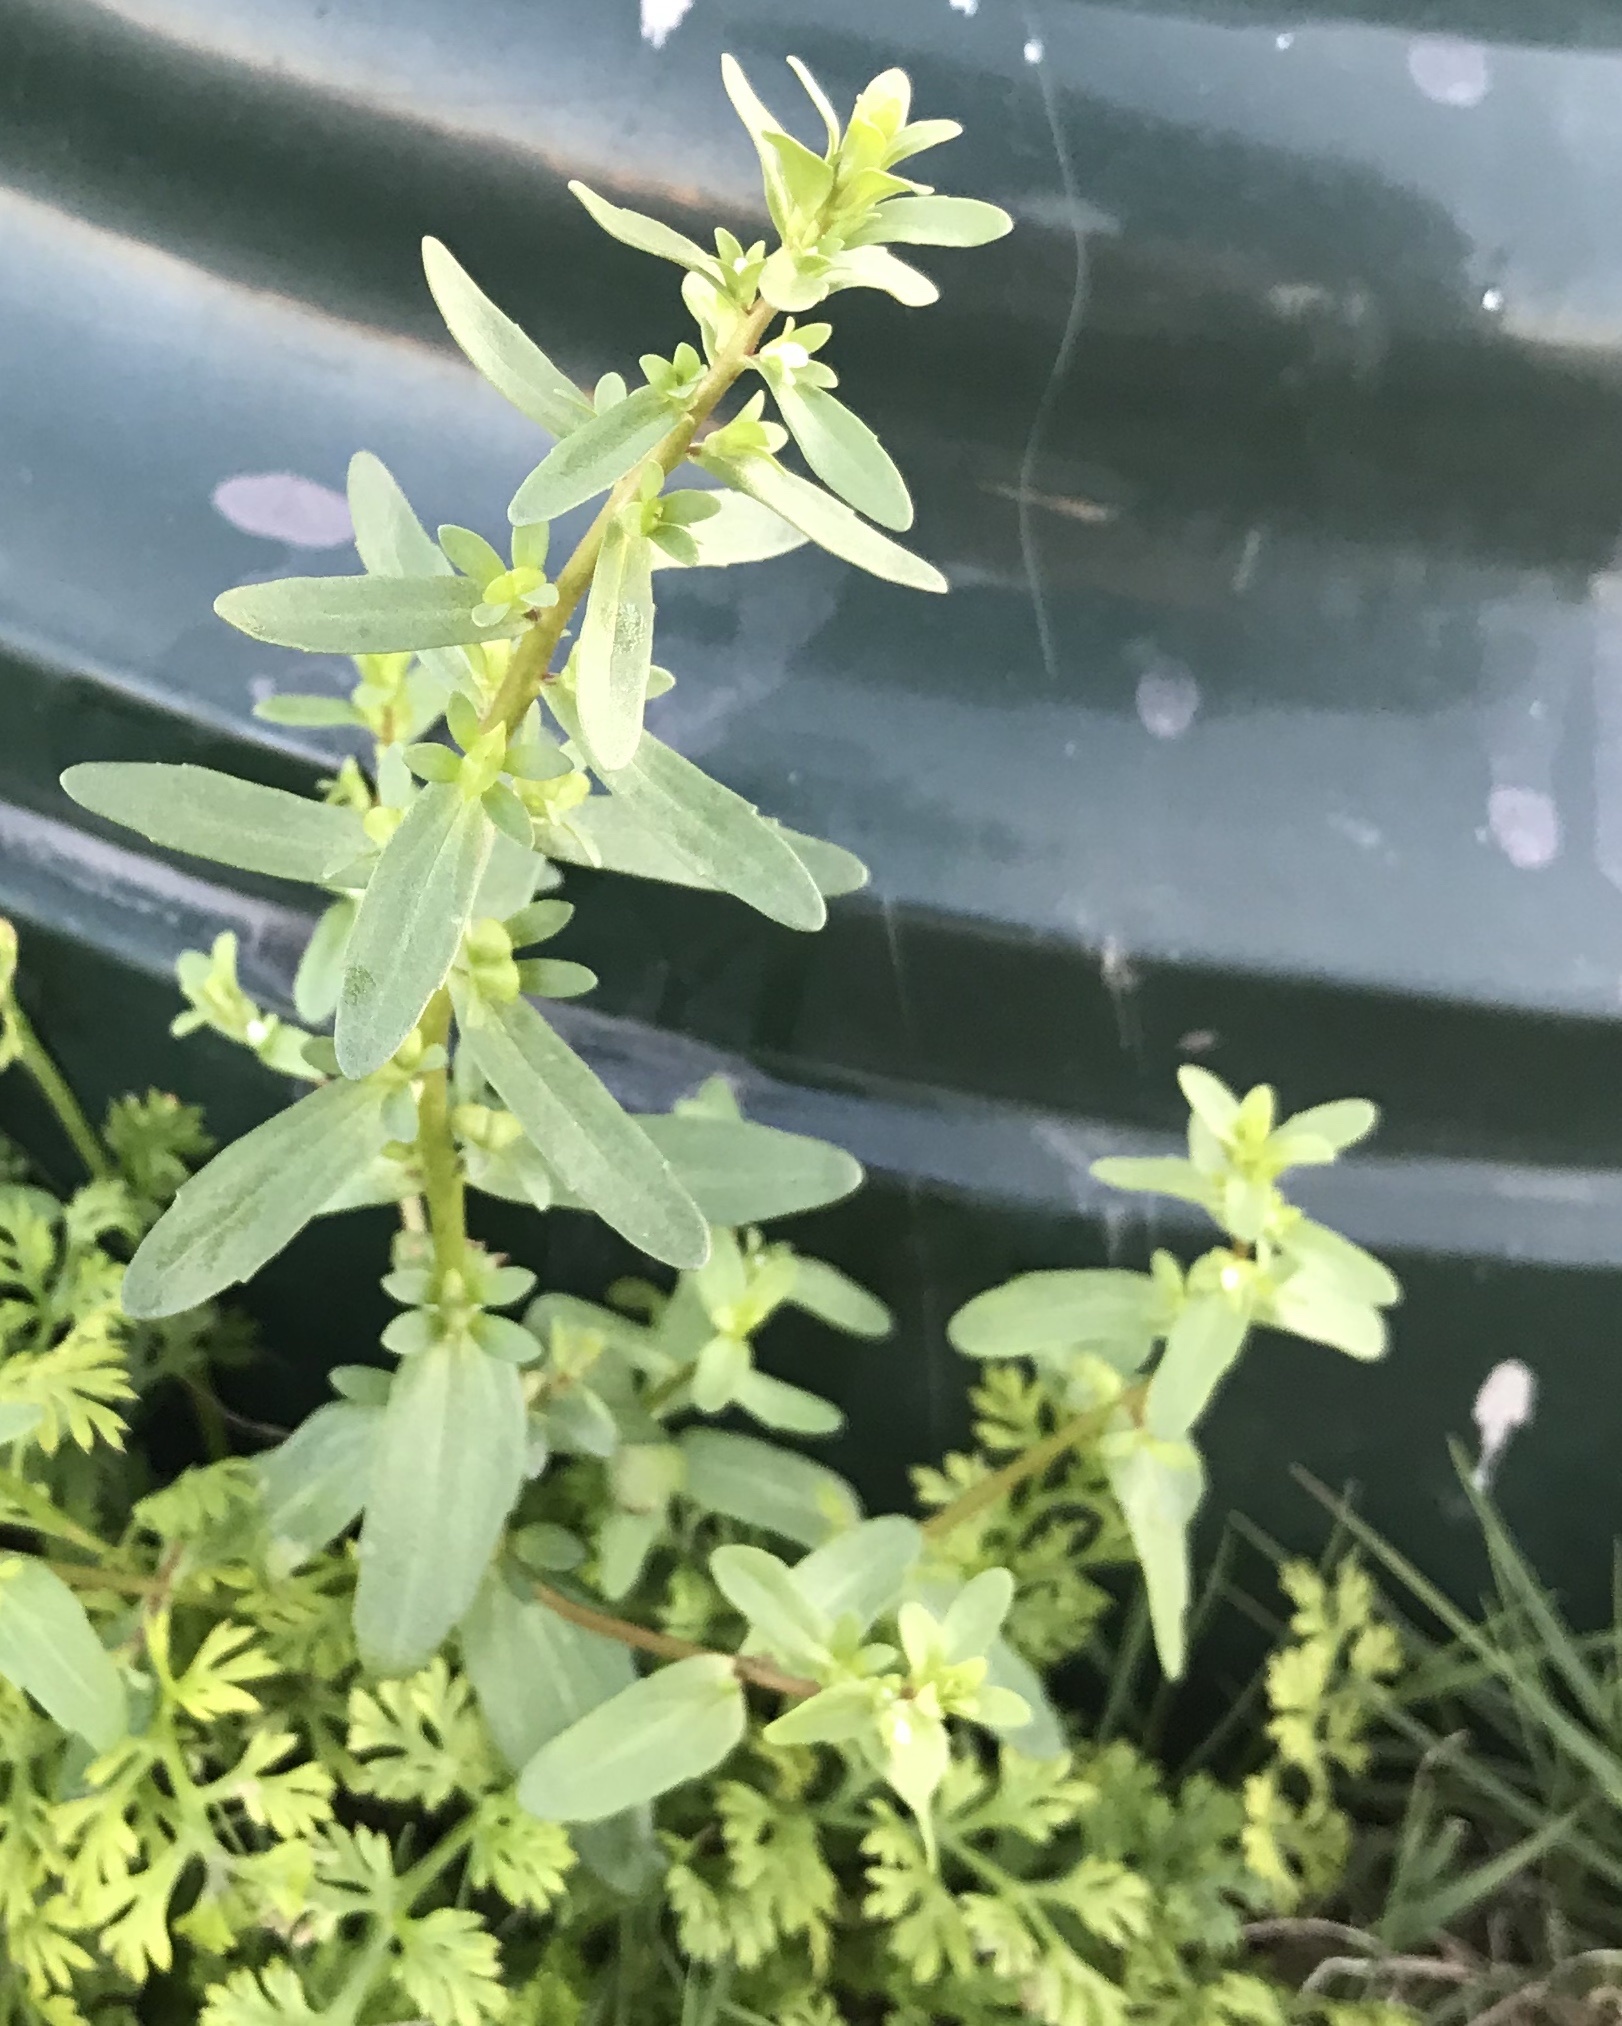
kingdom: Plantae
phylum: Tracheophyta
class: Magnoliopsida
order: Lamiales
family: Plantaginaceae
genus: Veronica
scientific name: Veronica peregrina
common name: Neckweed
